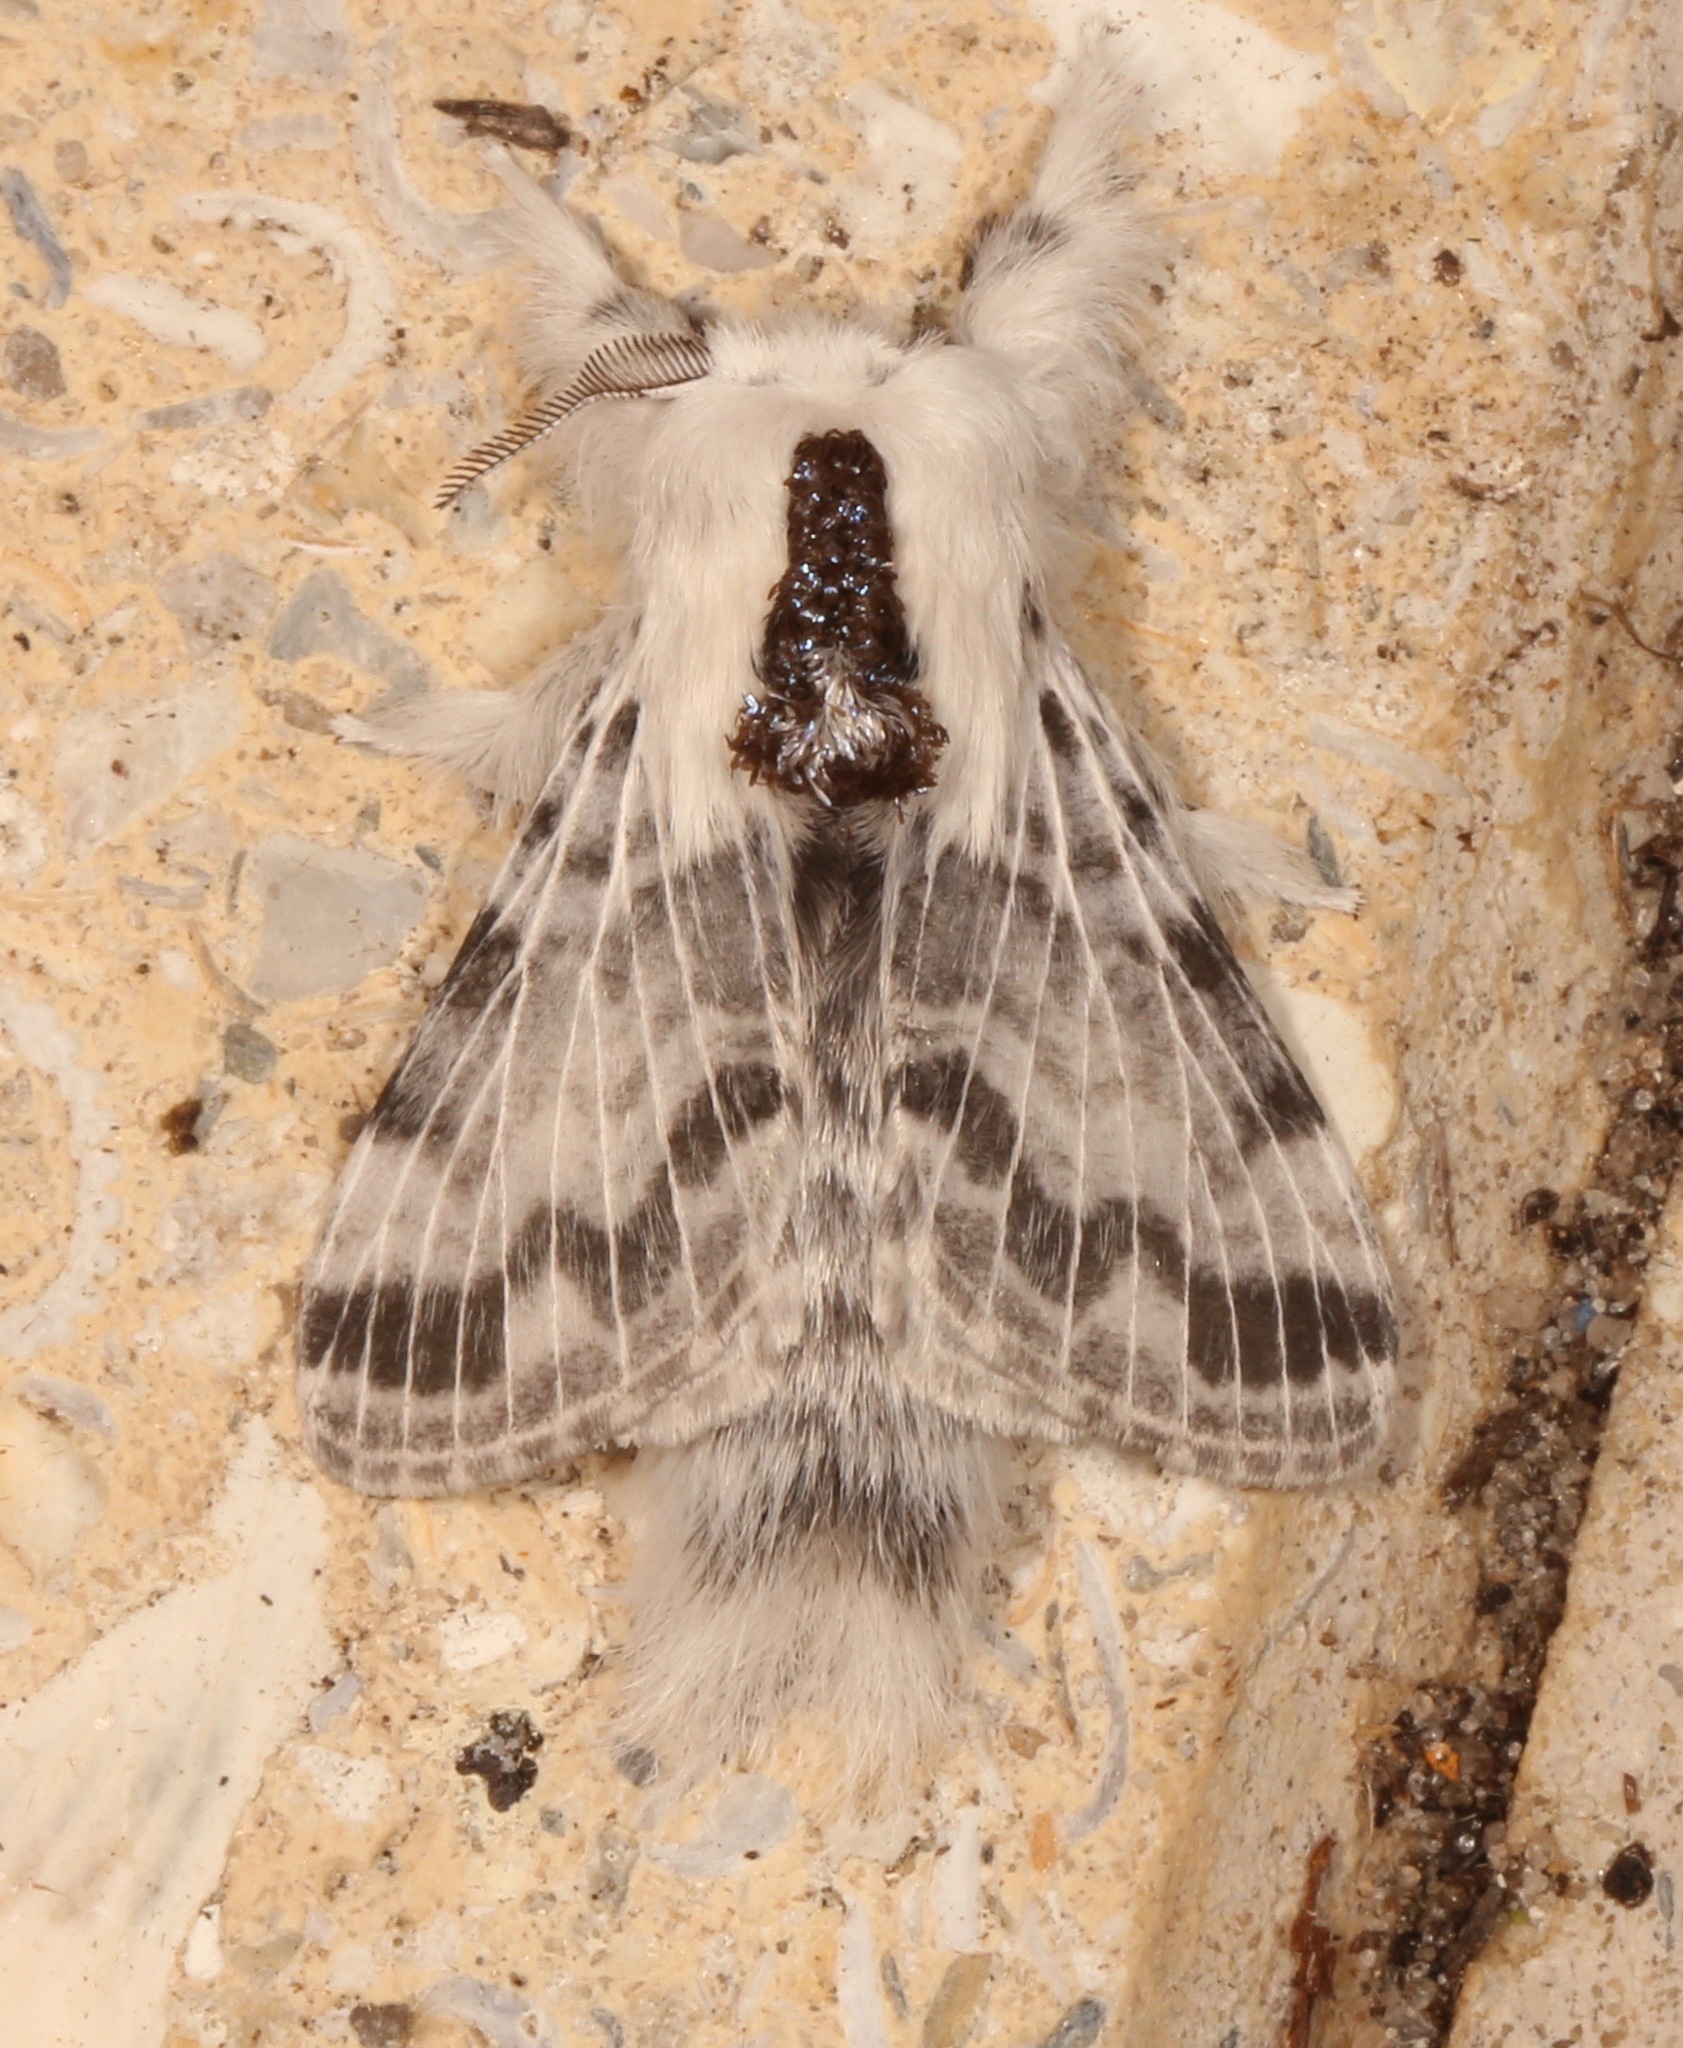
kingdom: Animalia
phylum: Arthropoda
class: Insecta
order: Lepidoptera
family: Lasiocampidae
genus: Tolype
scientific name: Tolype notialis
